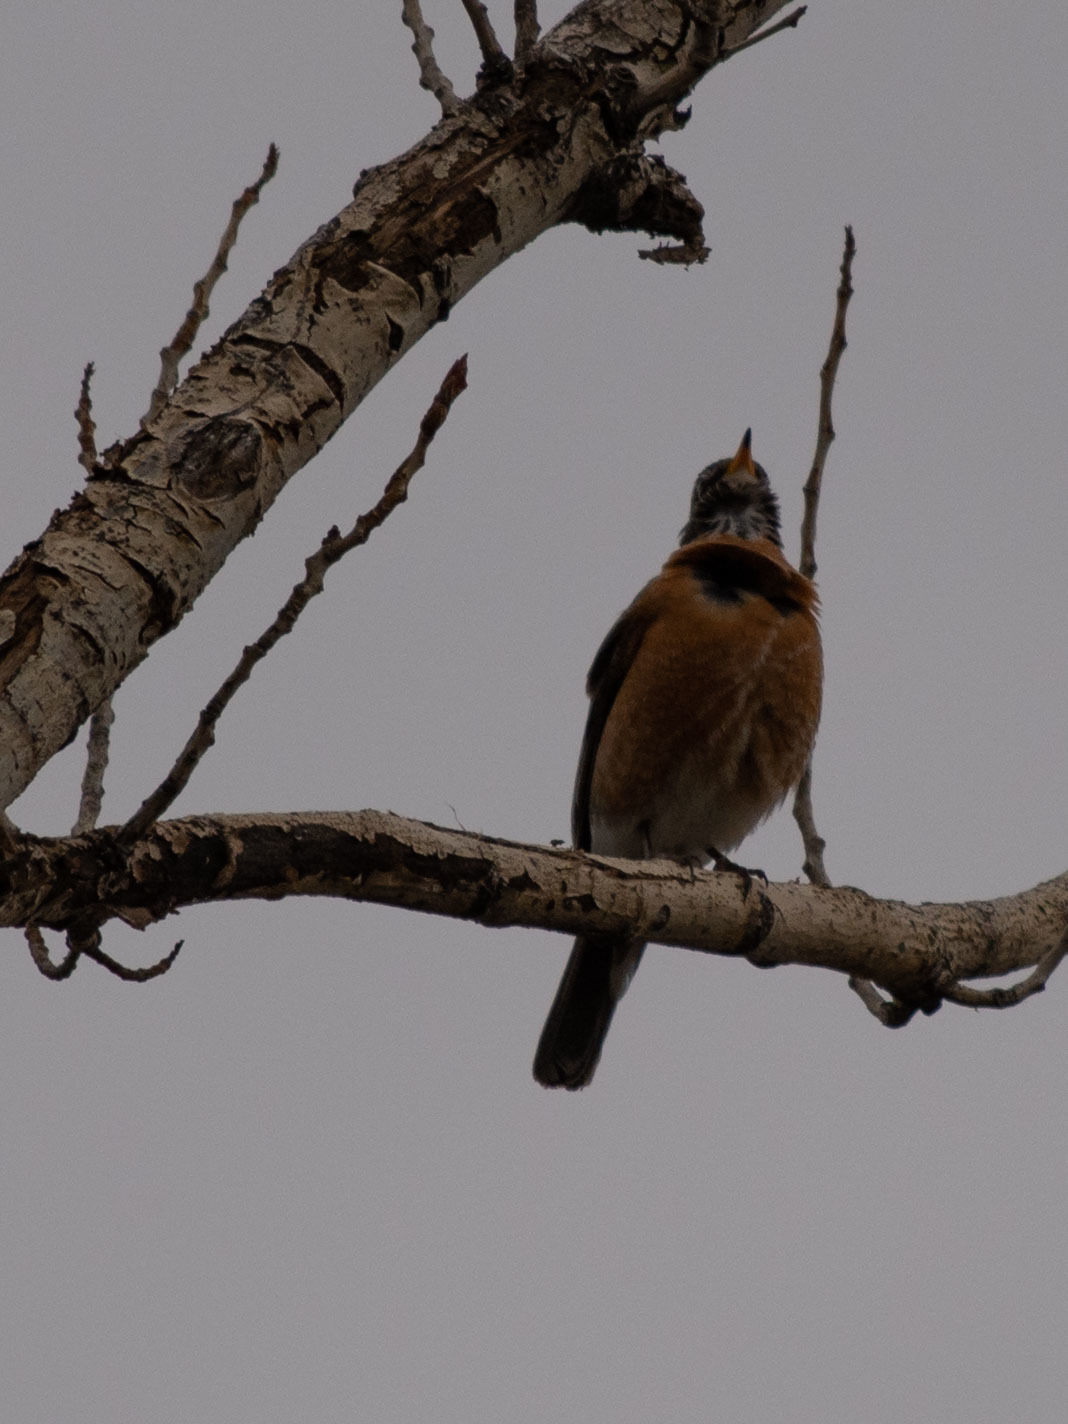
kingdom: Animalia
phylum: Chordata
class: Aves
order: Passeriformes
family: Turdidae
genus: Turdus
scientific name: Turdus migratorius
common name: American robin
